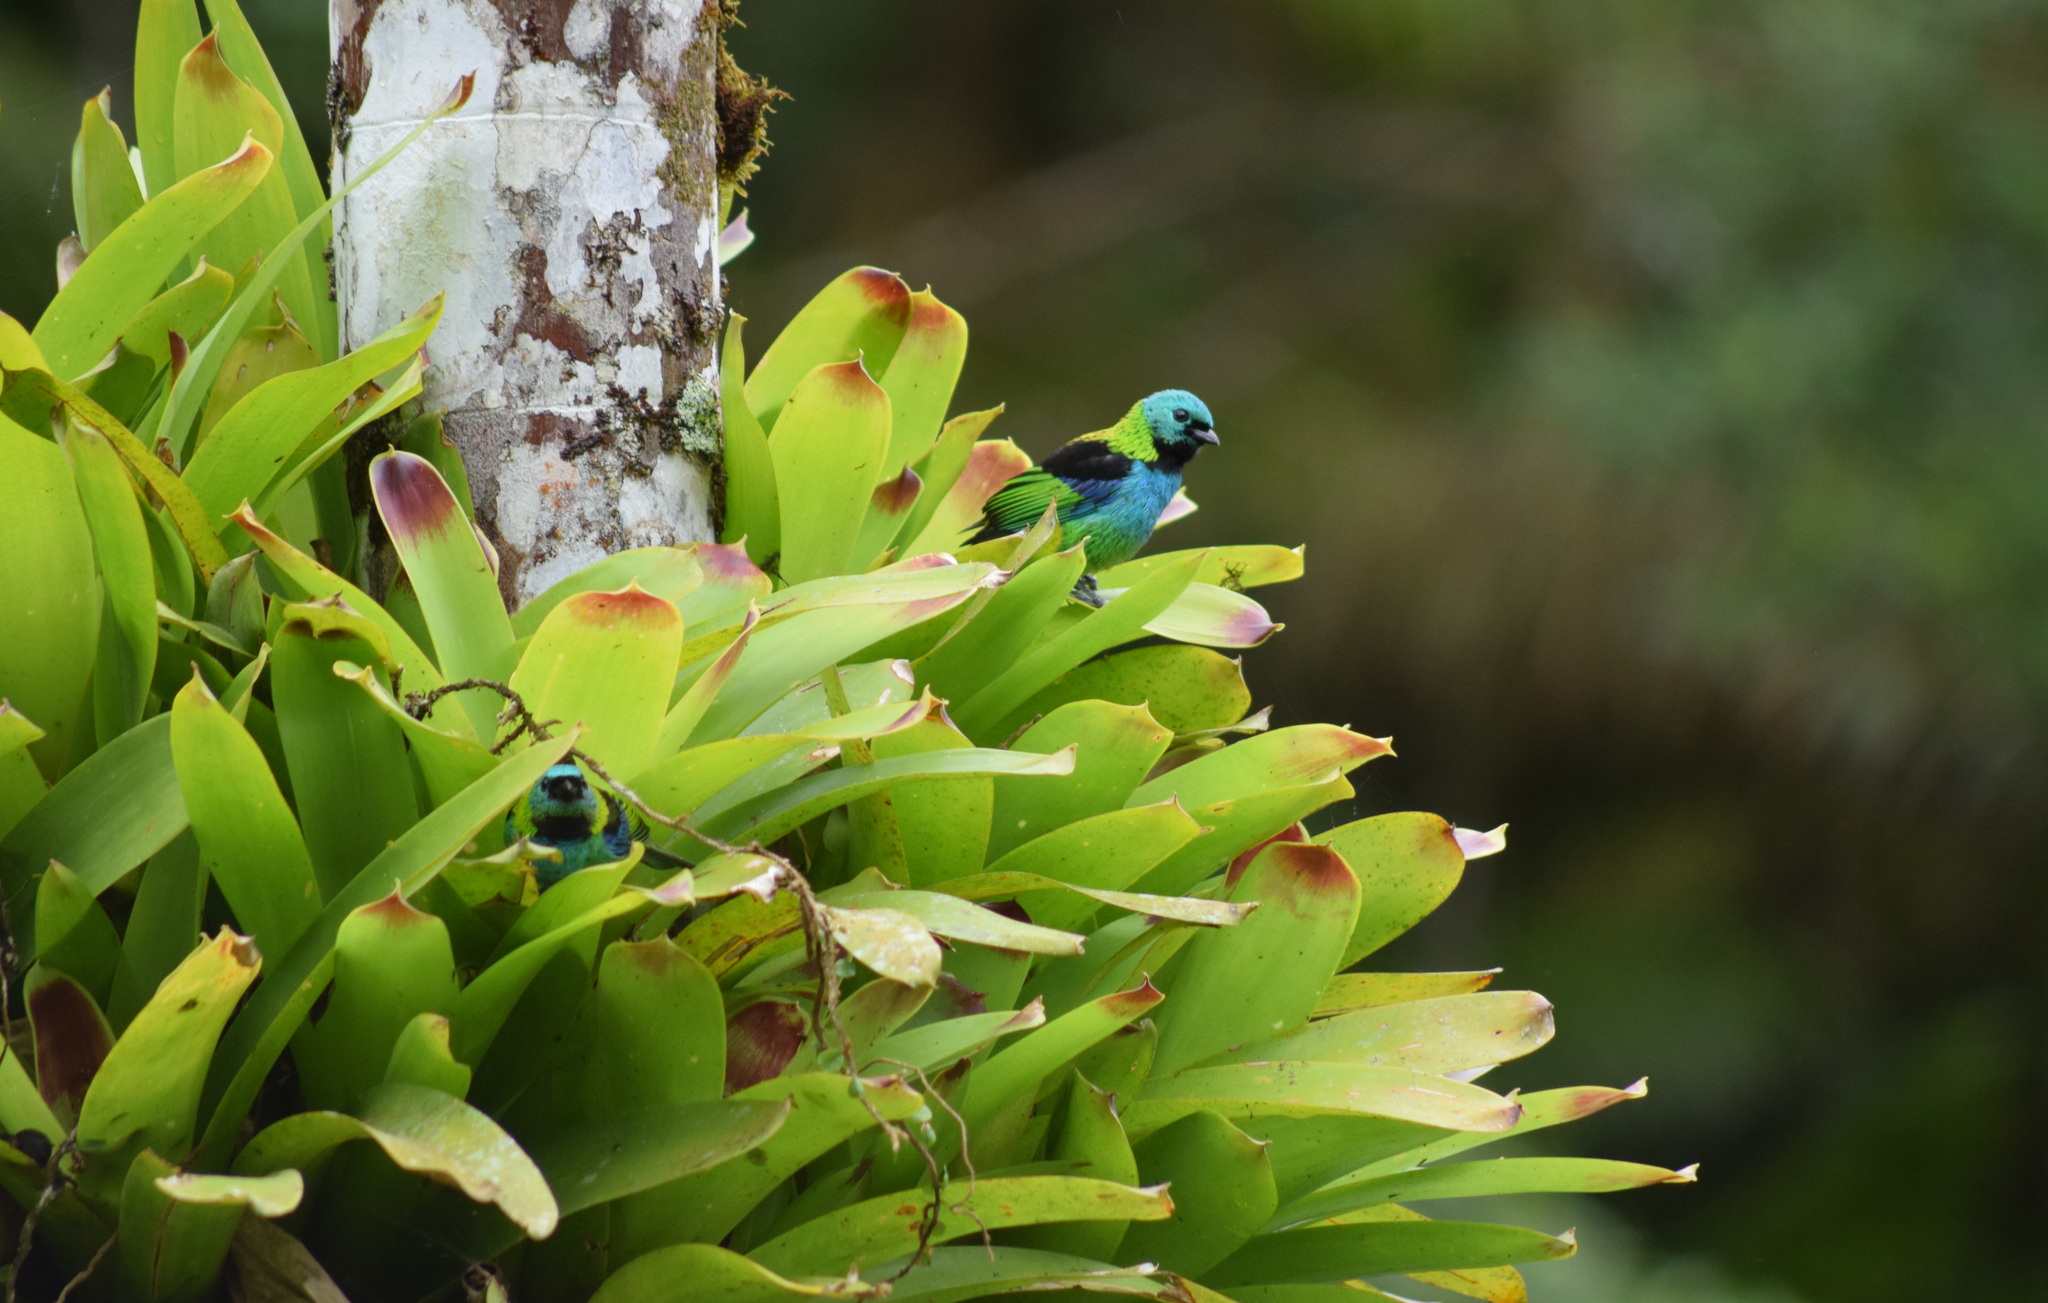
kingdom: Animalia
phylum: Chordata
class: Aves
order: Passeriformes
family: Thraupidae
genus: Tangara
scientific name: Tangara seledon
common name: Green-headed tanager
